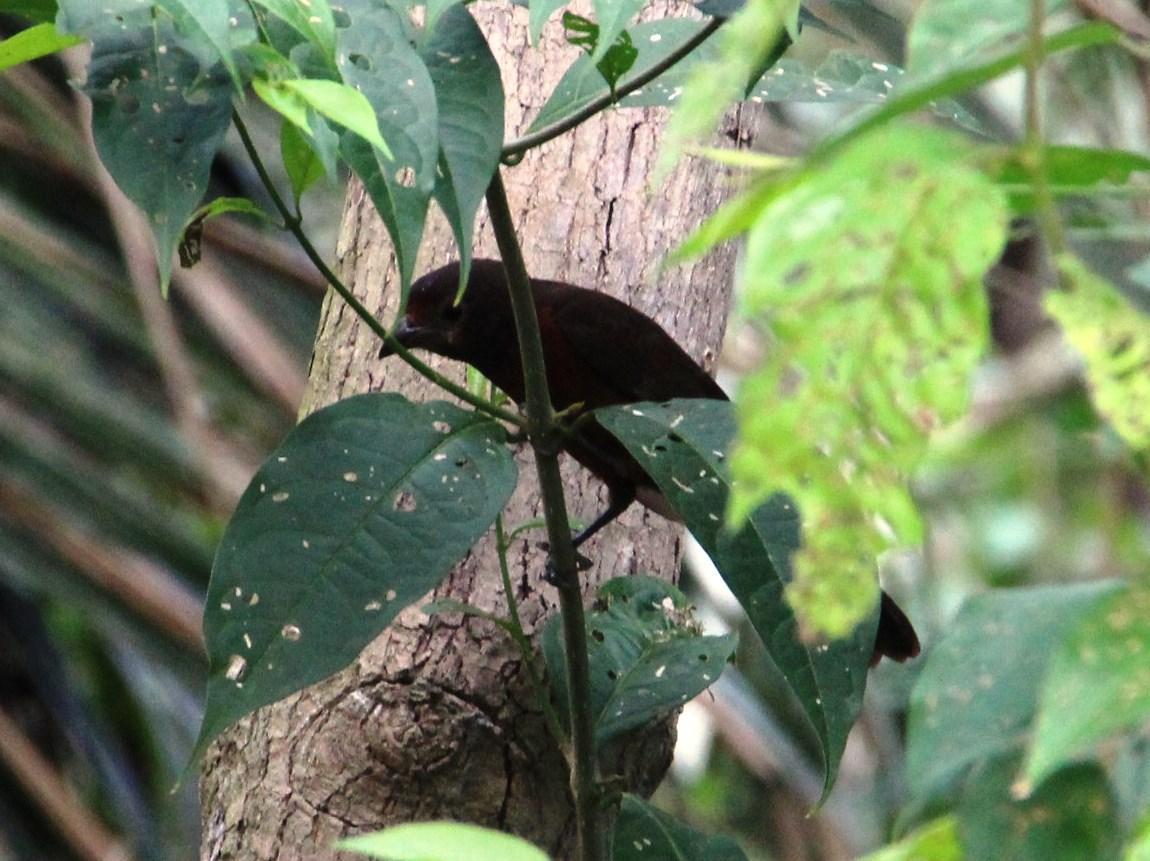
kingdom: Animalia
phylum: Chordata
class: Aves
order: Passeriformes
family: Thraupidae
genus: Ramphocelus
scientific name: Ramphocelus carbo
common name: Silver-beaked tanager
